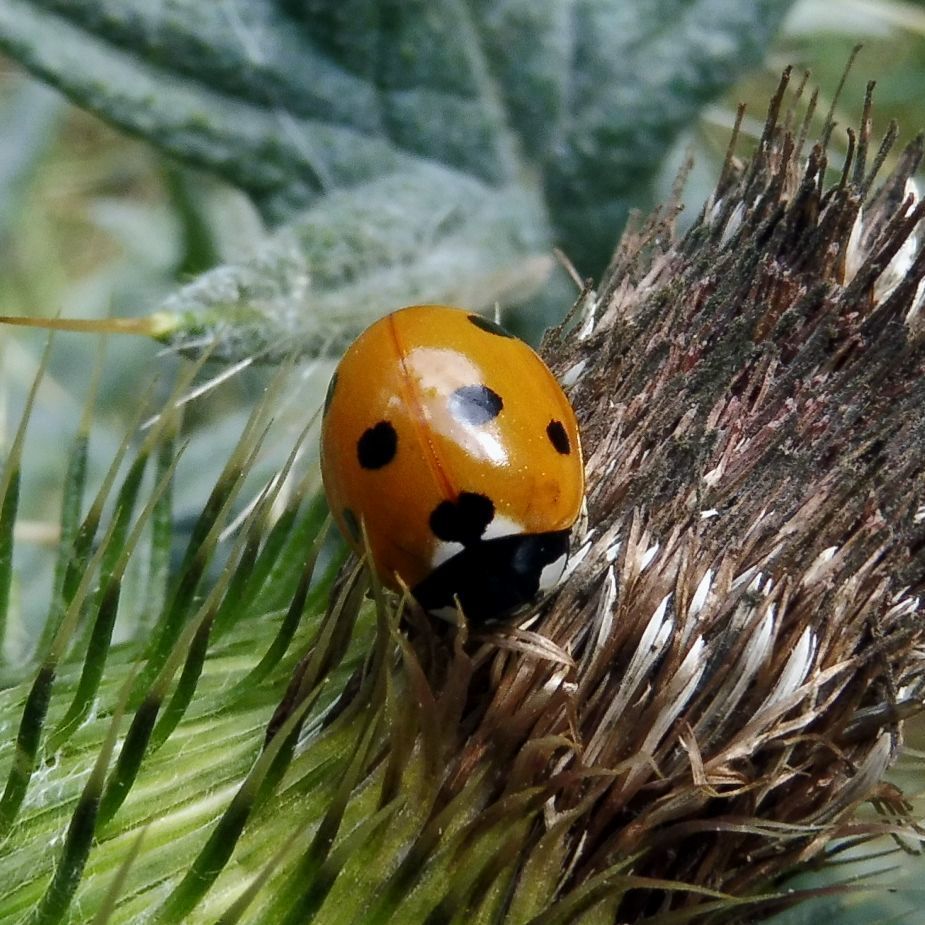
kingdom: Animalia
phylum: Arthropoda
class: Insecta
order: Coleoptera
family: Coccinellidae
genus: Coccinella
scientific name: Coccinella septempunctata
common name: Sevenspotted lady beetle
